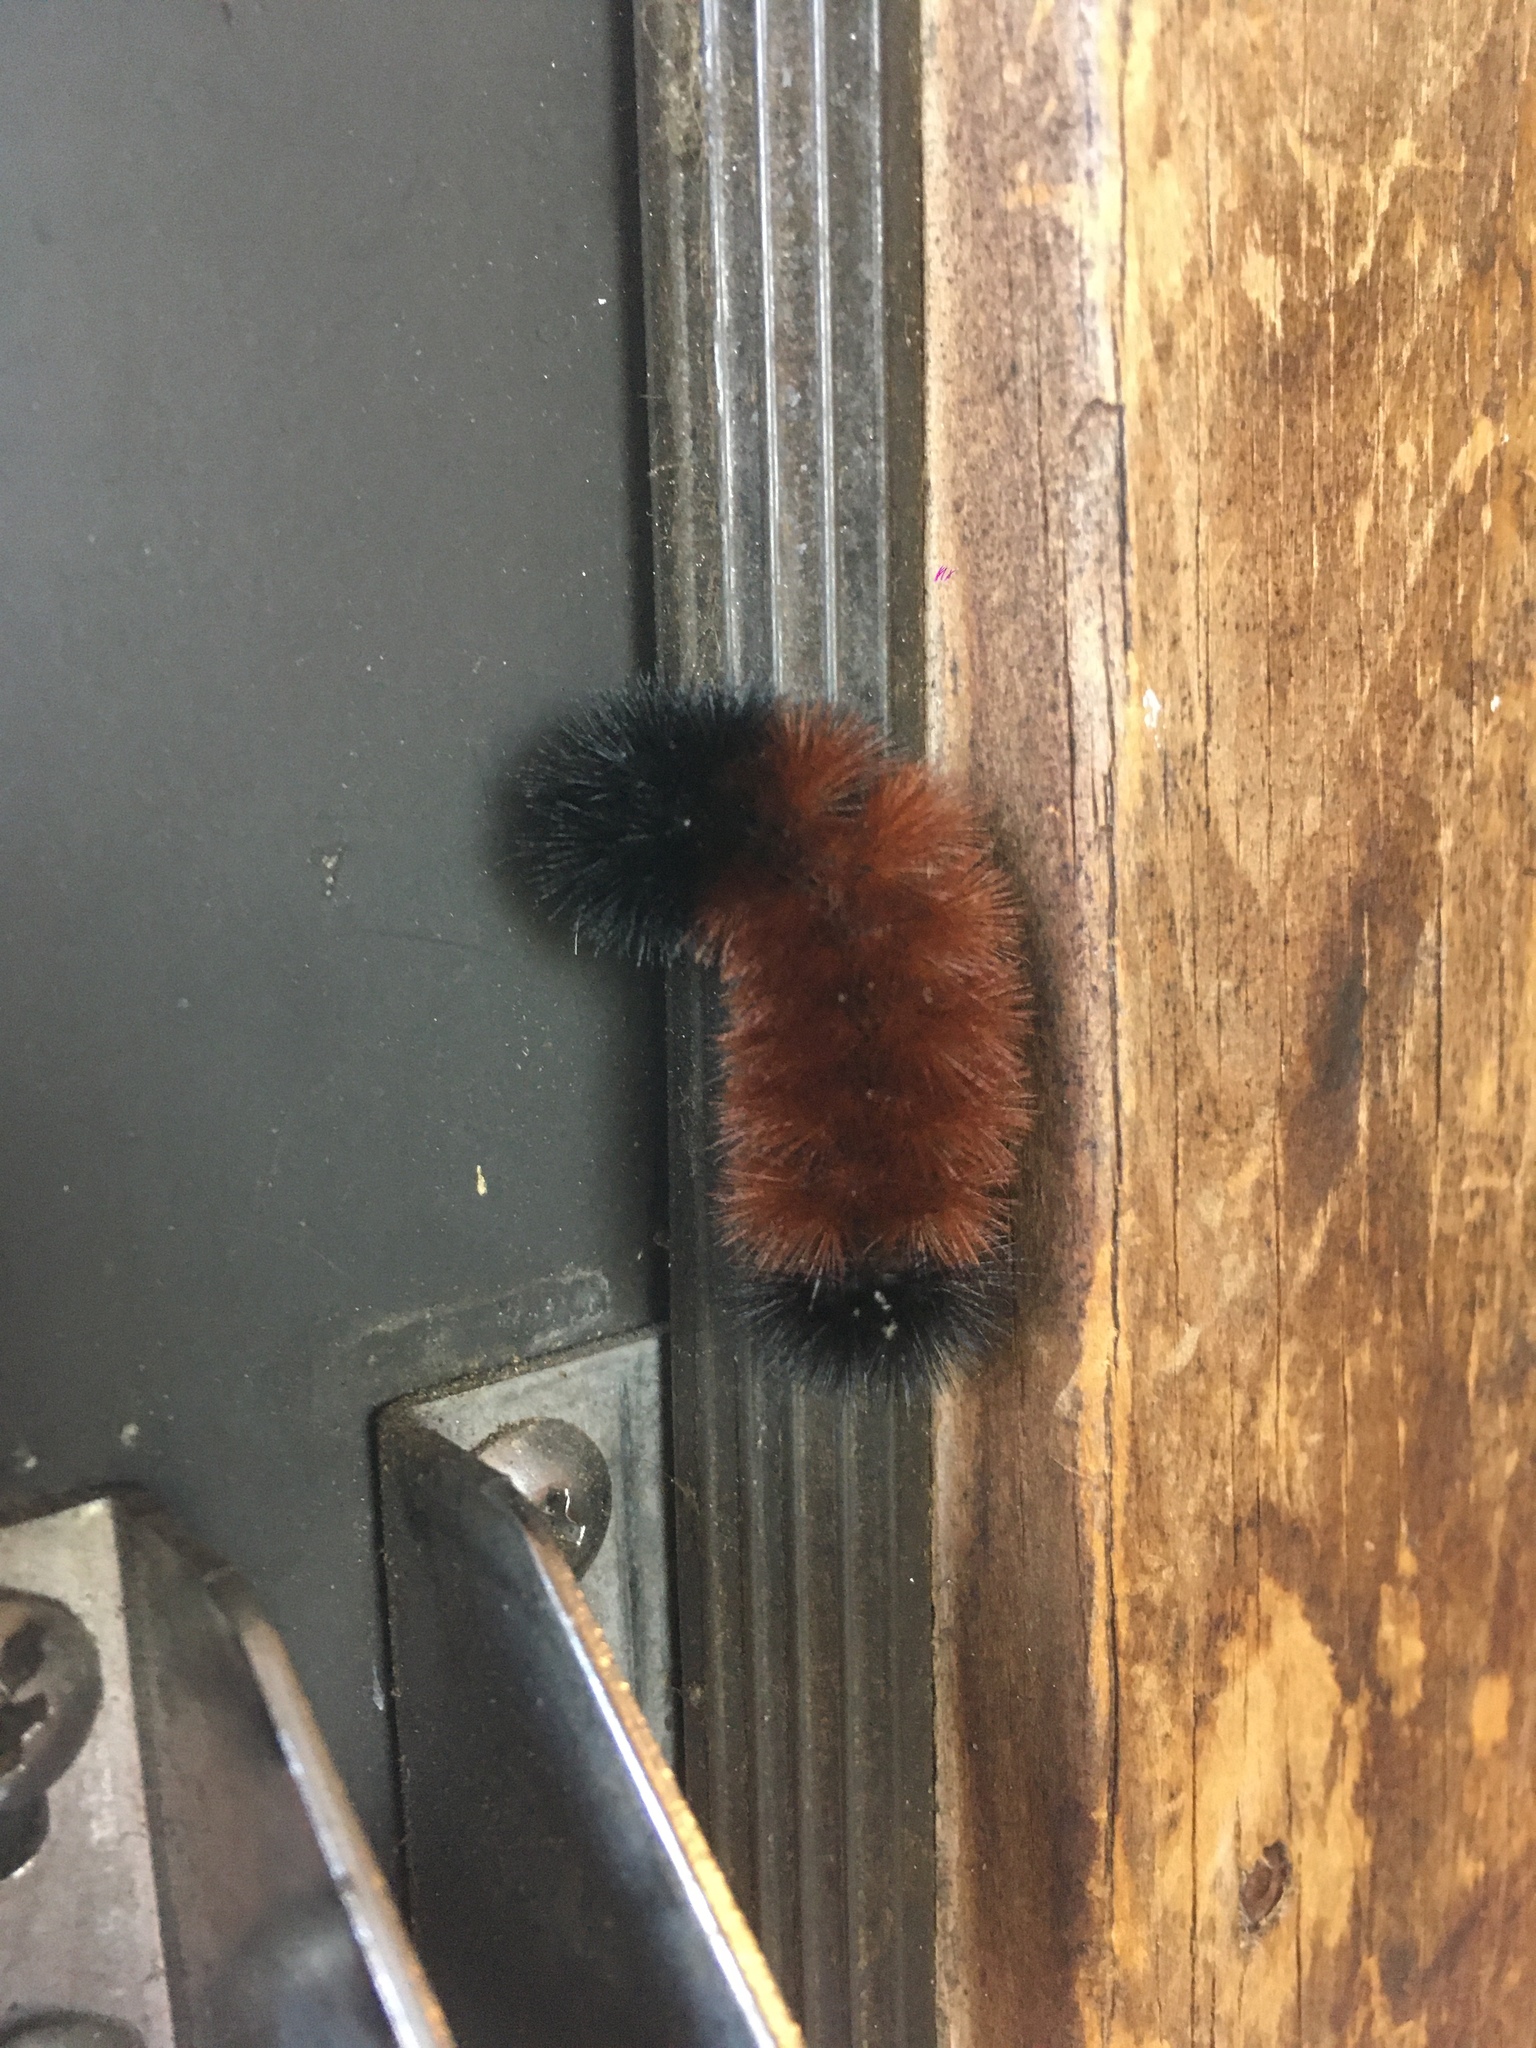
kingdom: Animalia
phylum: Arthropoda
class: Insecta
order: Lepidoptera
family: Erebidae
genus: Pyrrharctia
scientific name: Pyrrharctia isabella
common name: Isabella tiger moth
